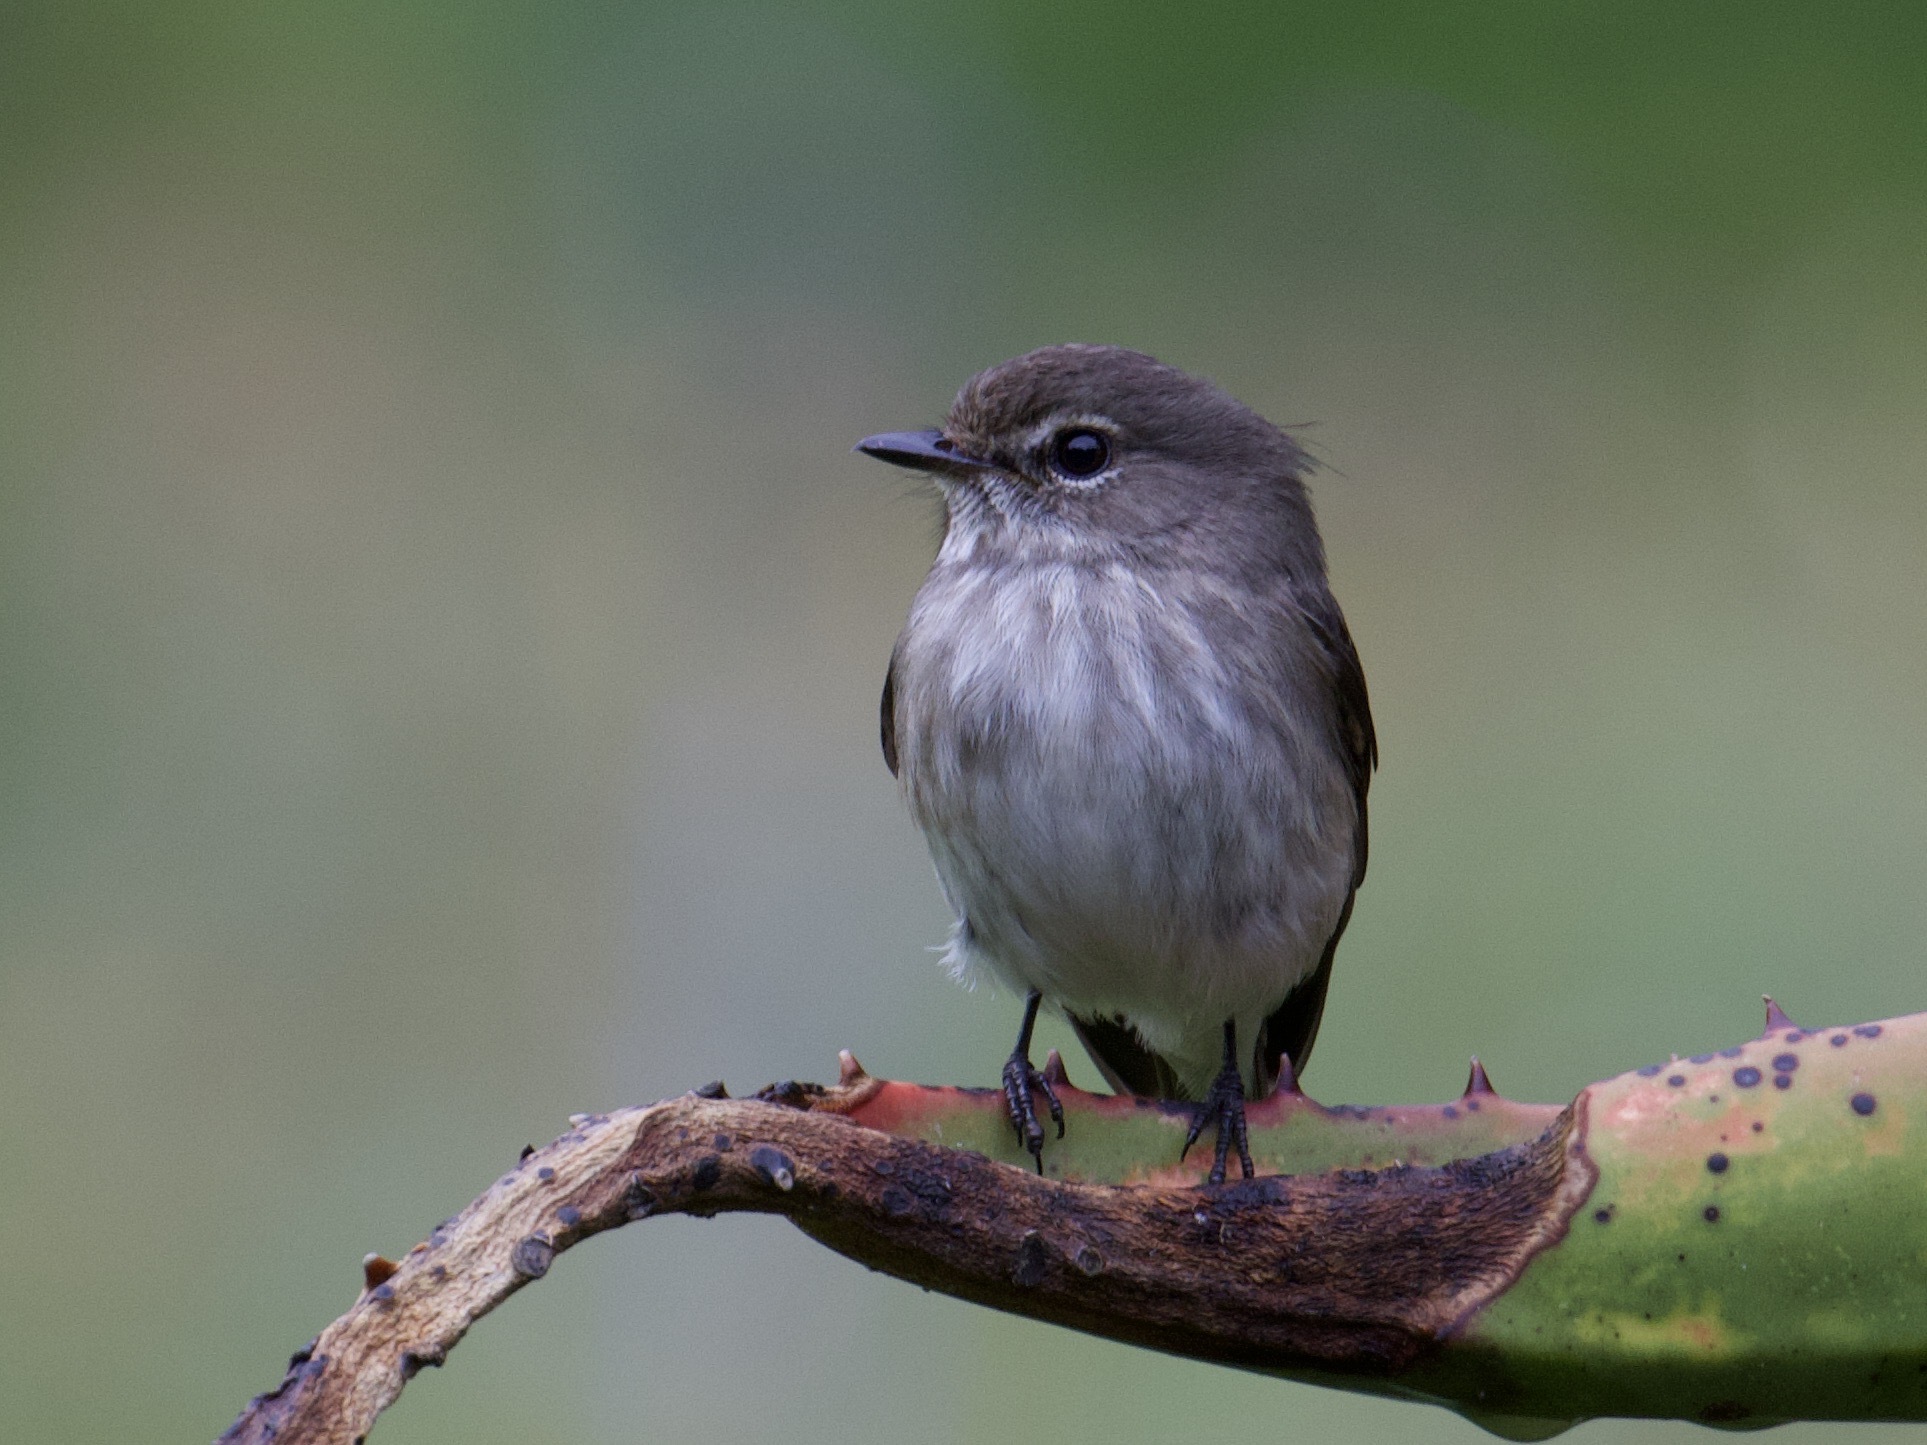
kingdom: Animalia
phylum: Chordata
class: Aves
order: Passeriformes
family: Muscicapidae
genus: Muscicapa
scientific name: Muscicapa adusta
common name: African dusky flycatcher
